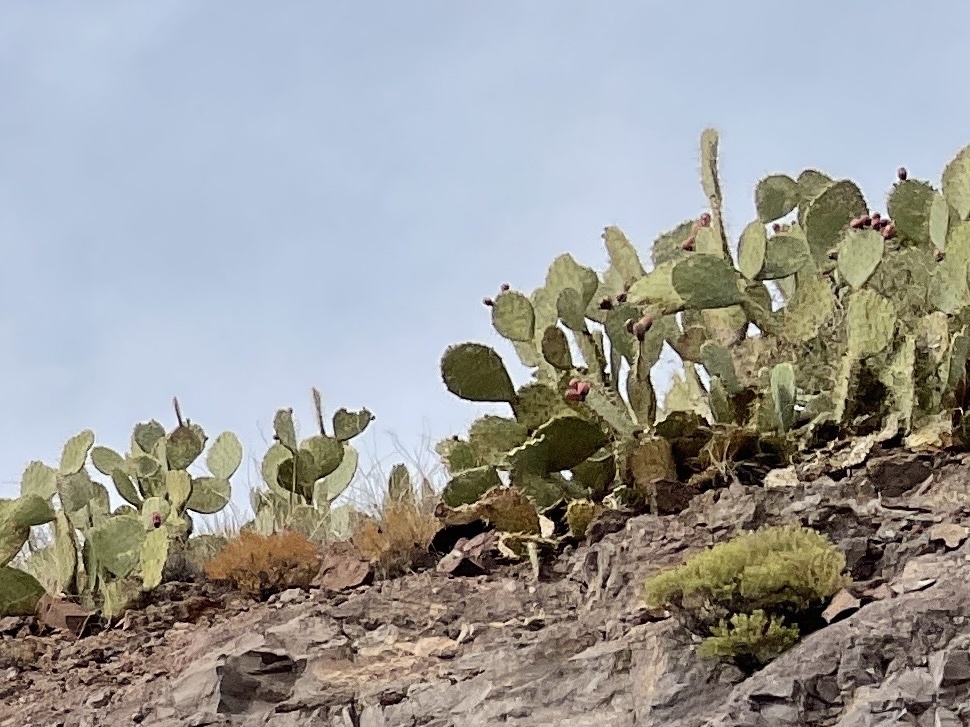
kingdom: Plantae
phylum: Tracheophyta
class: Magnoliopsida
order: Caryophyllales
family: Cactaceae
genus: Opuntia
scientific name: Opuntia engelmannii
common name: Cactus-apple
